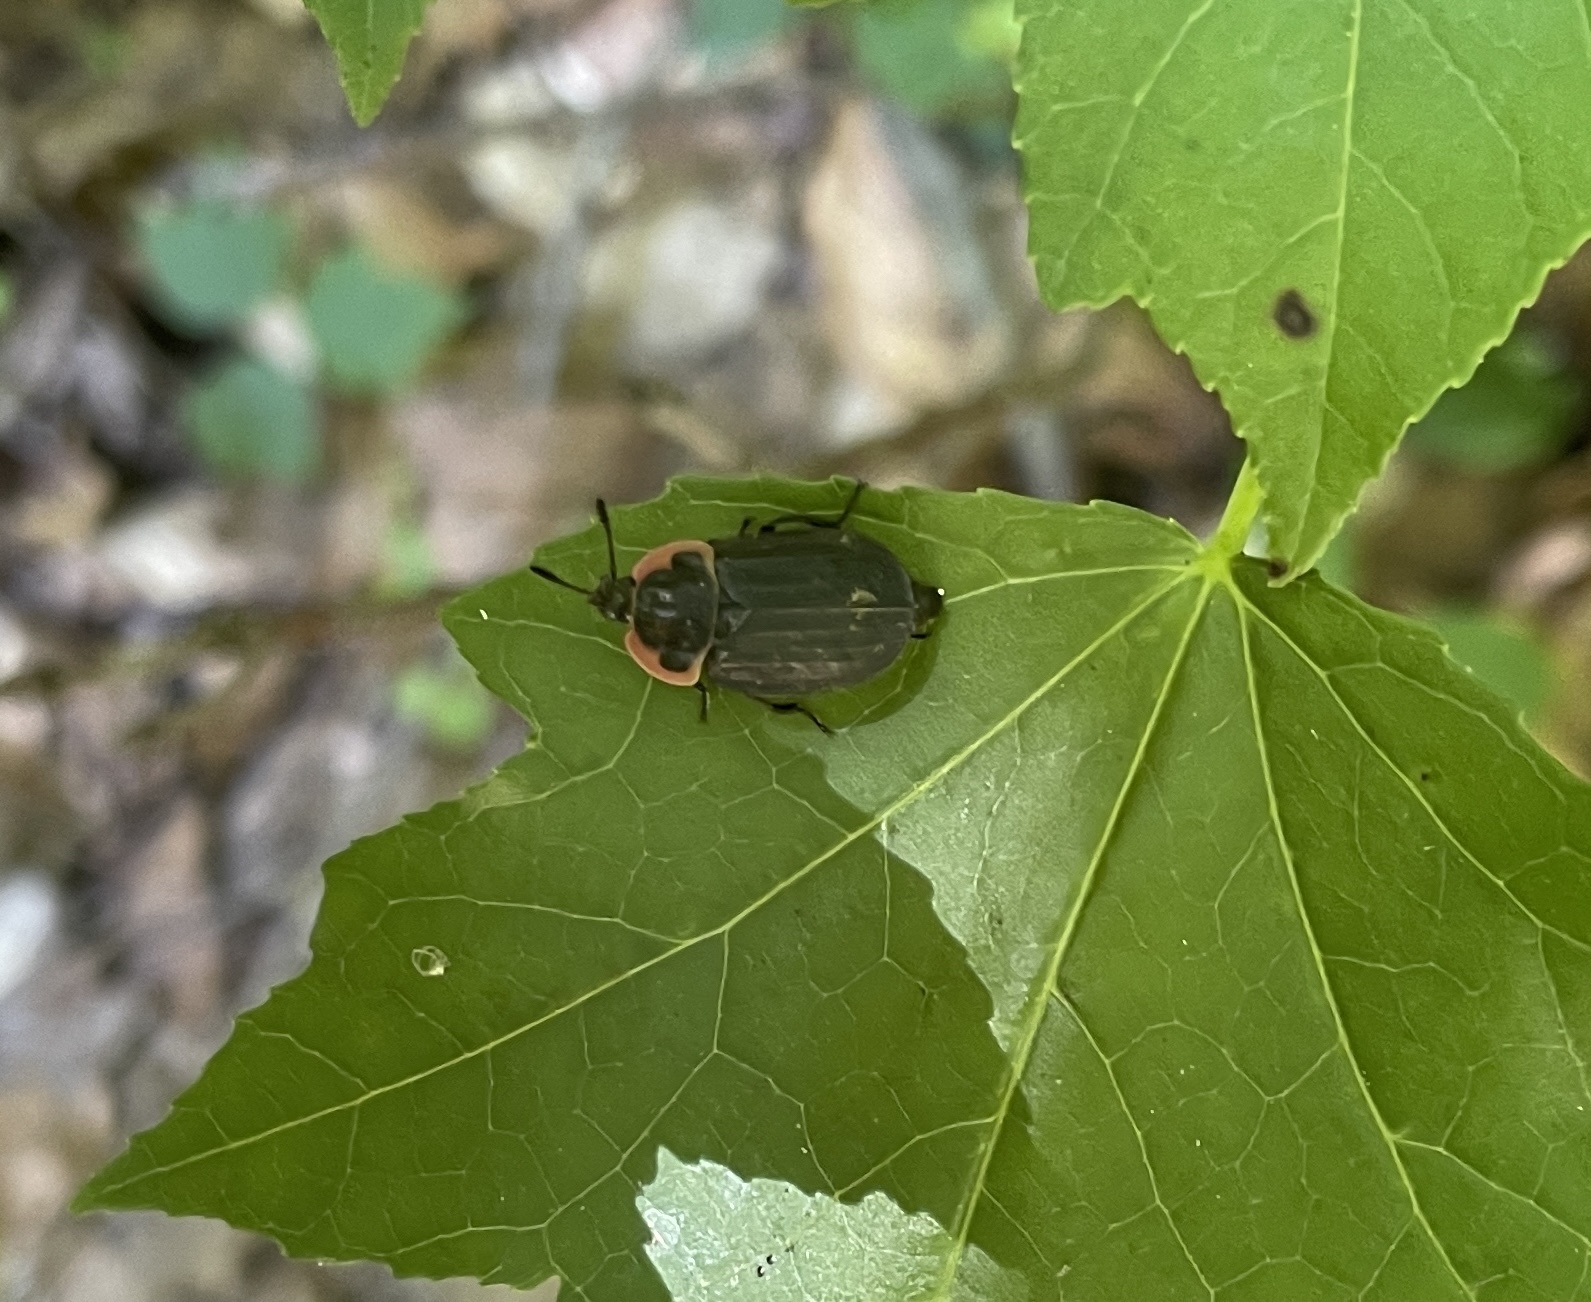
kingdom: Animalia
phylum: Arthropoda
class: Insecta
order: Coleoptera
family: Staphylinidae
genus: Oiceoptoma
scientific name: Oiceoptoma noveboracense
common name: Margined carrion beetle
